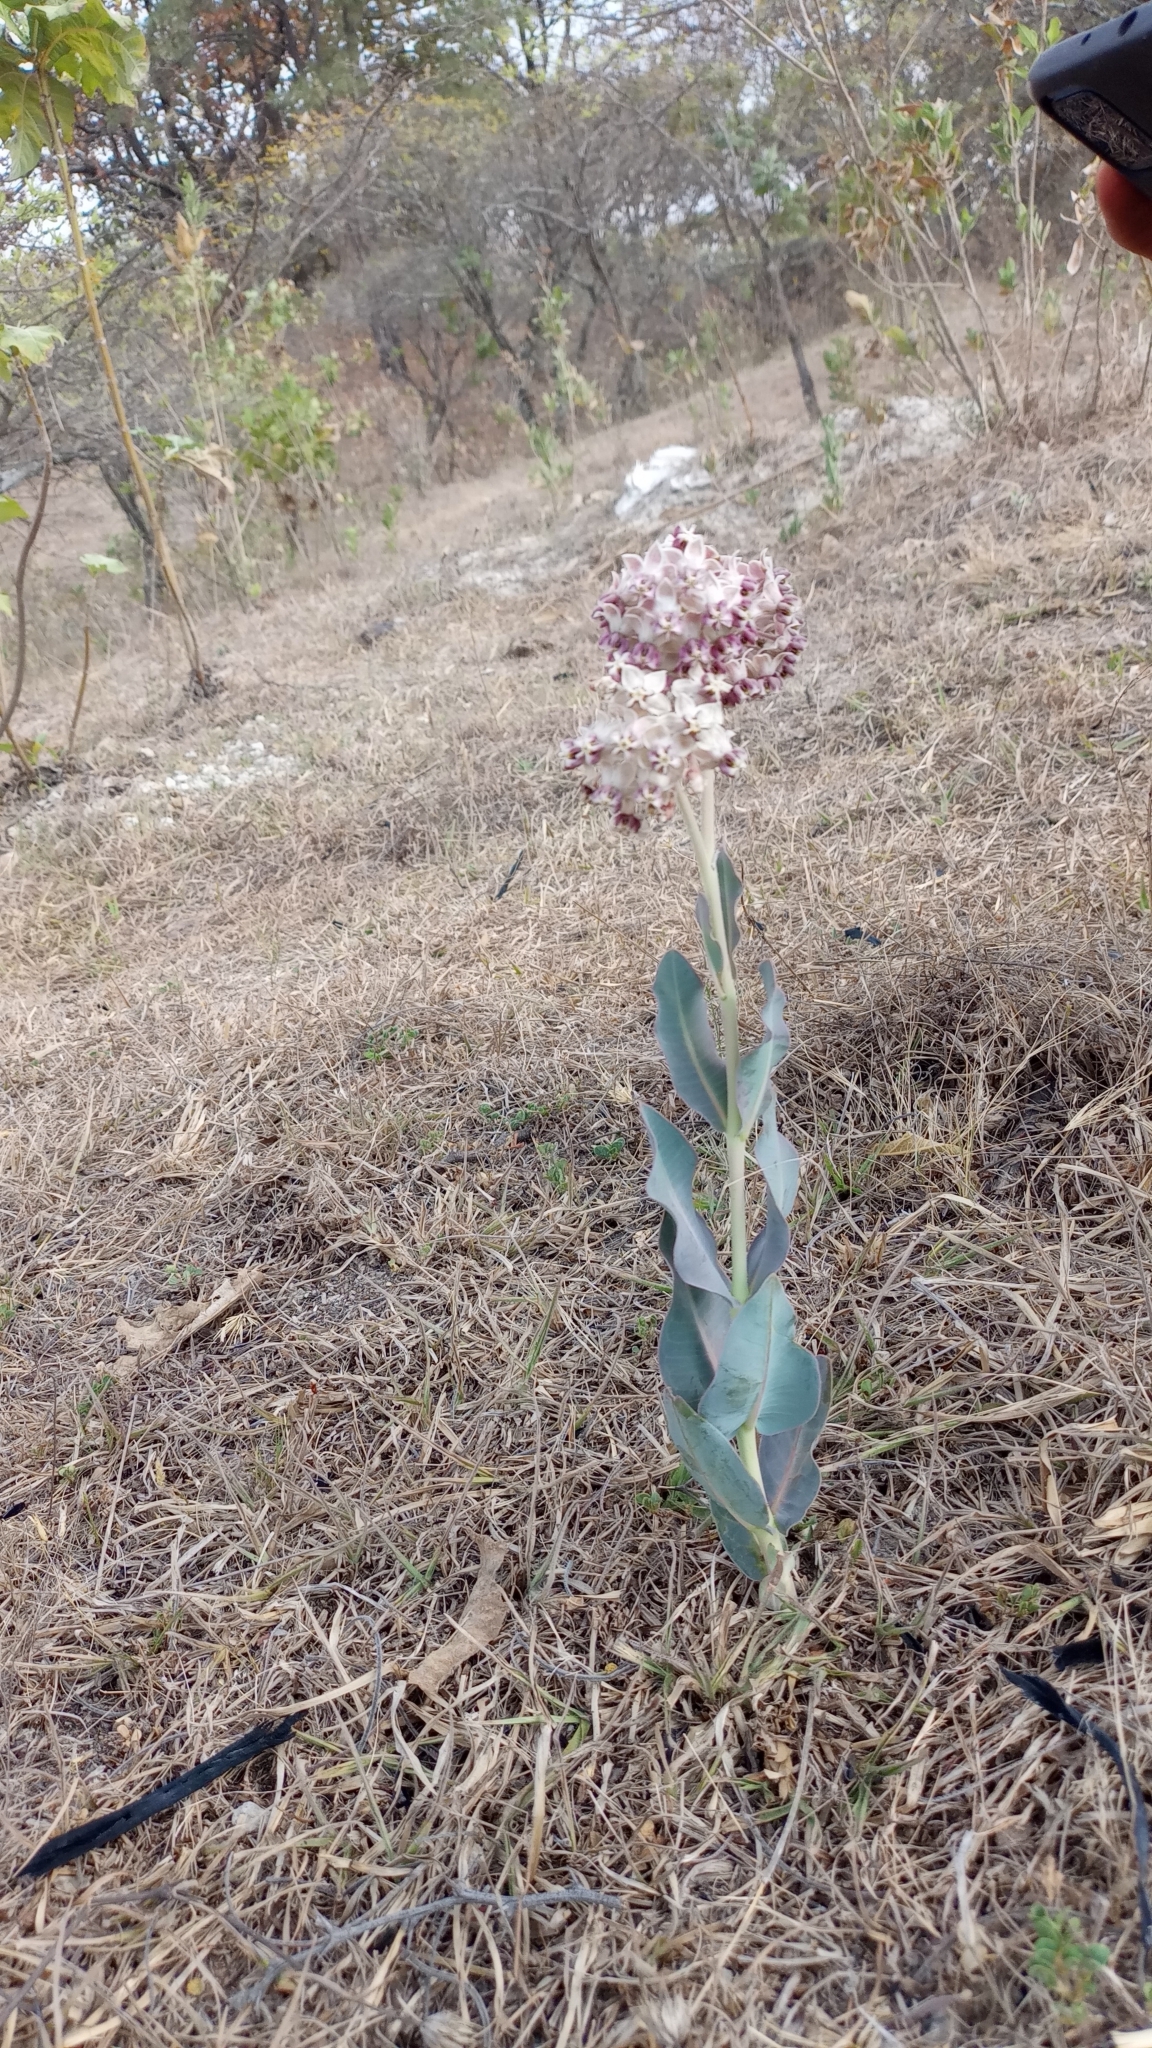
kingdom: Plantae
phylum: Tracheophyta
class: Magnoliopsida
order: Gentianales
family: Apocynaceae
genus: Asclepias
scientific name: Asclepias graogramanii
